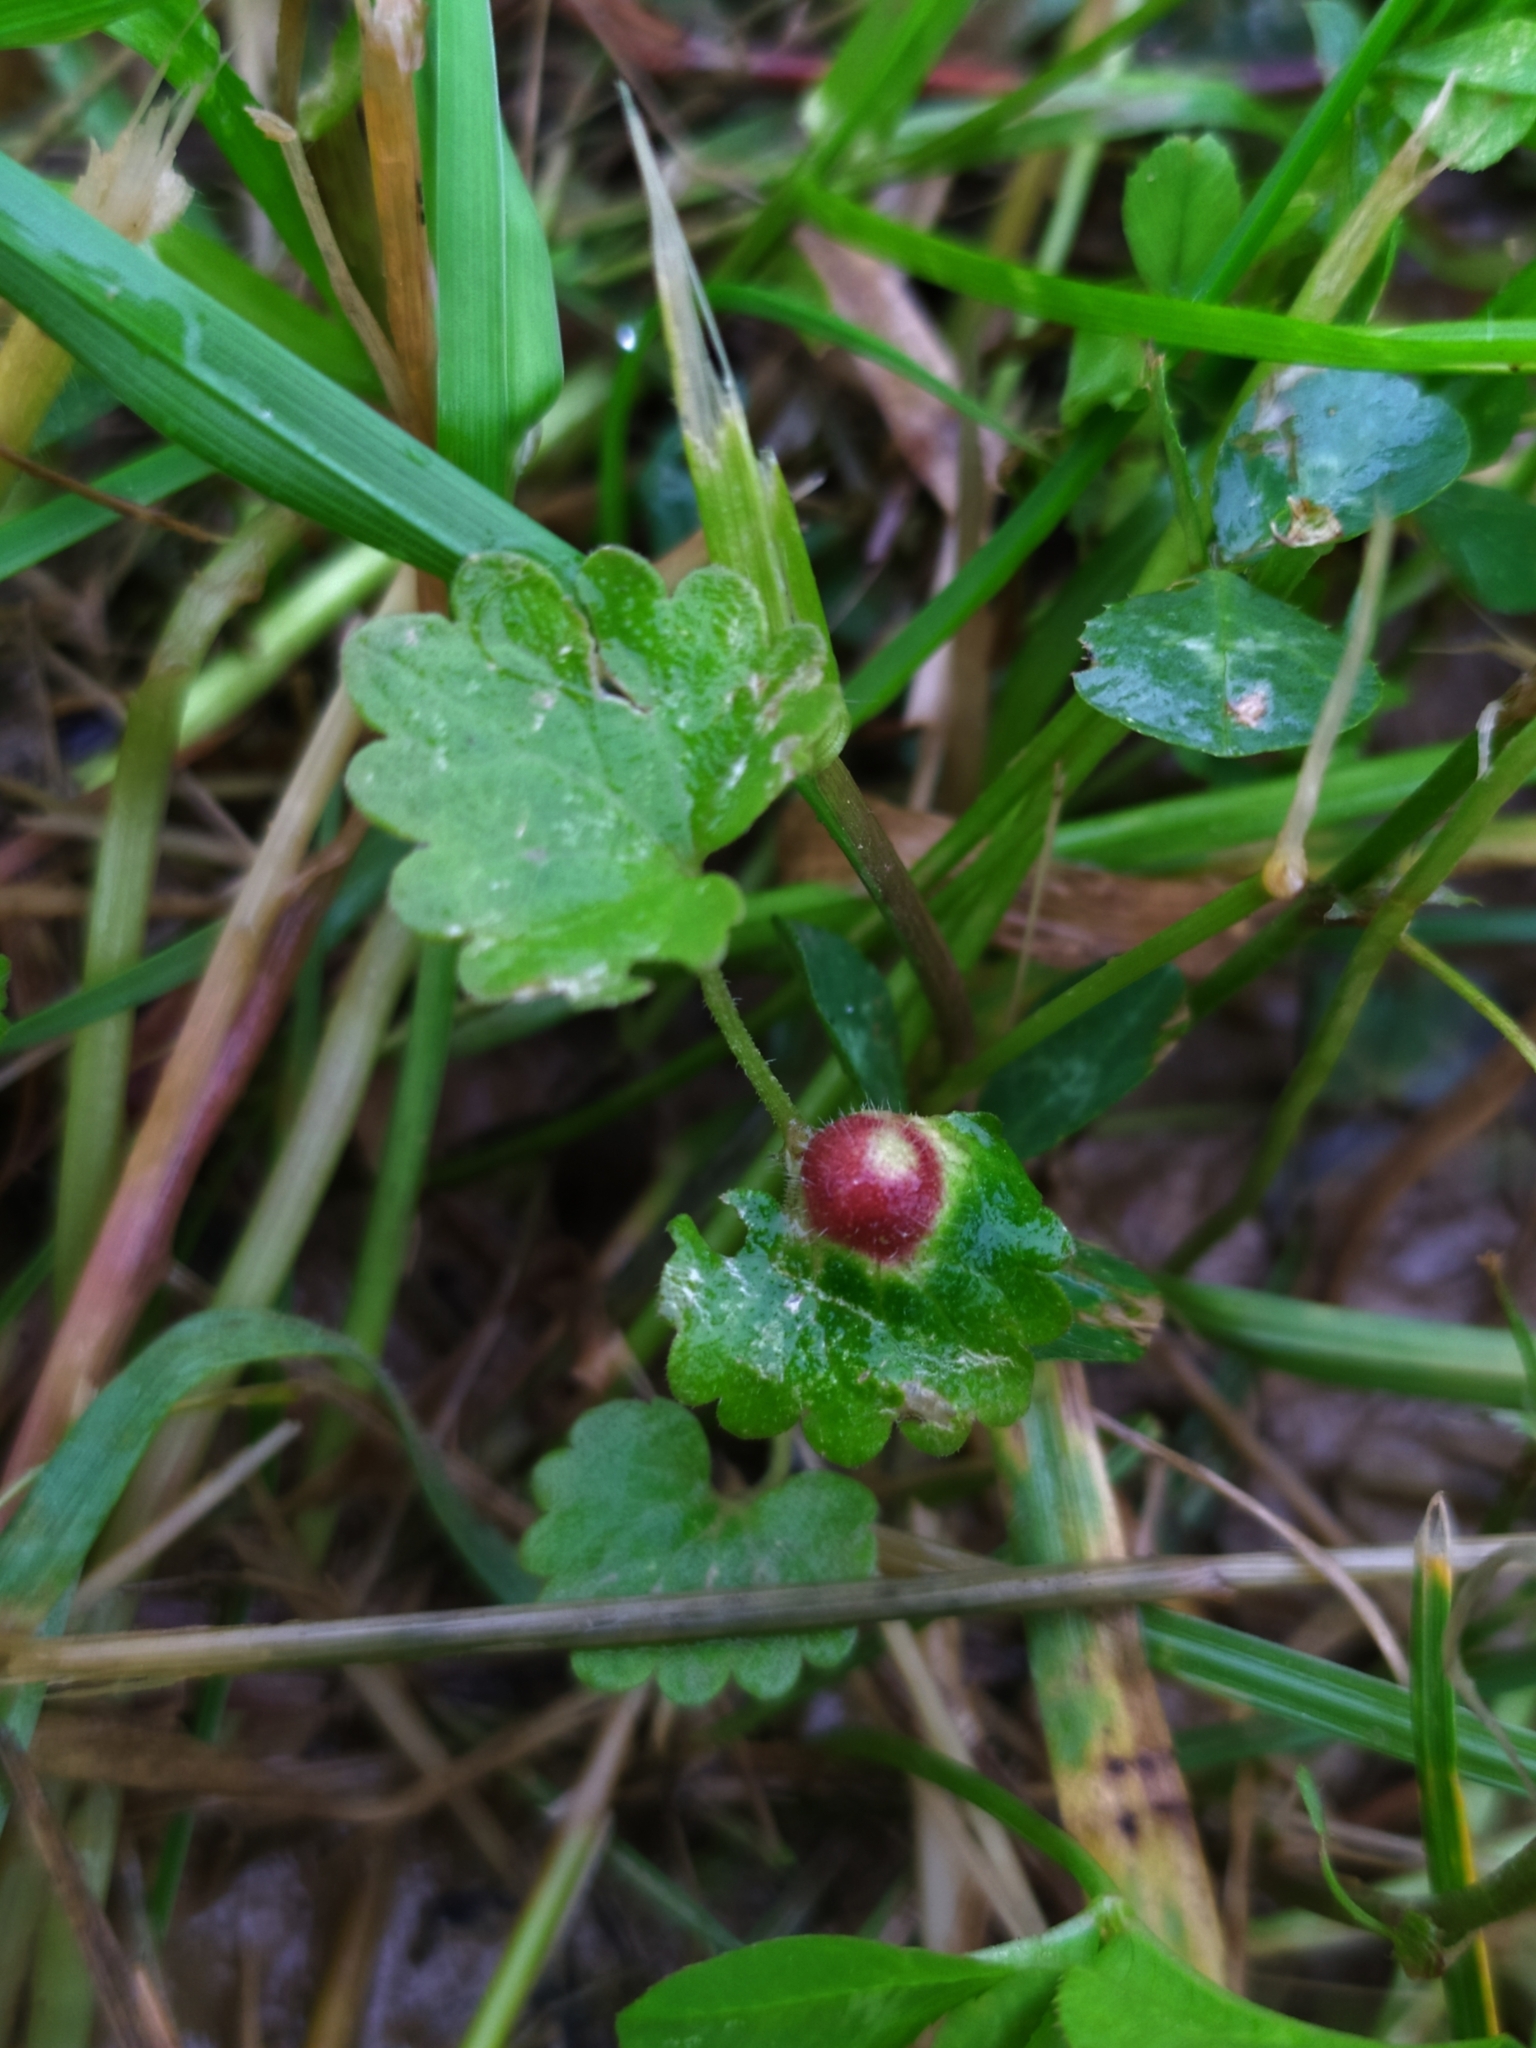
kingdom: Animalia
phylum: Arthropoda
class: Insecta
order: Hymenoptera
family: Cynipidae
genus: Liposthenes
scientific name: Liposthenes glechomae
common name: Gall wasp
